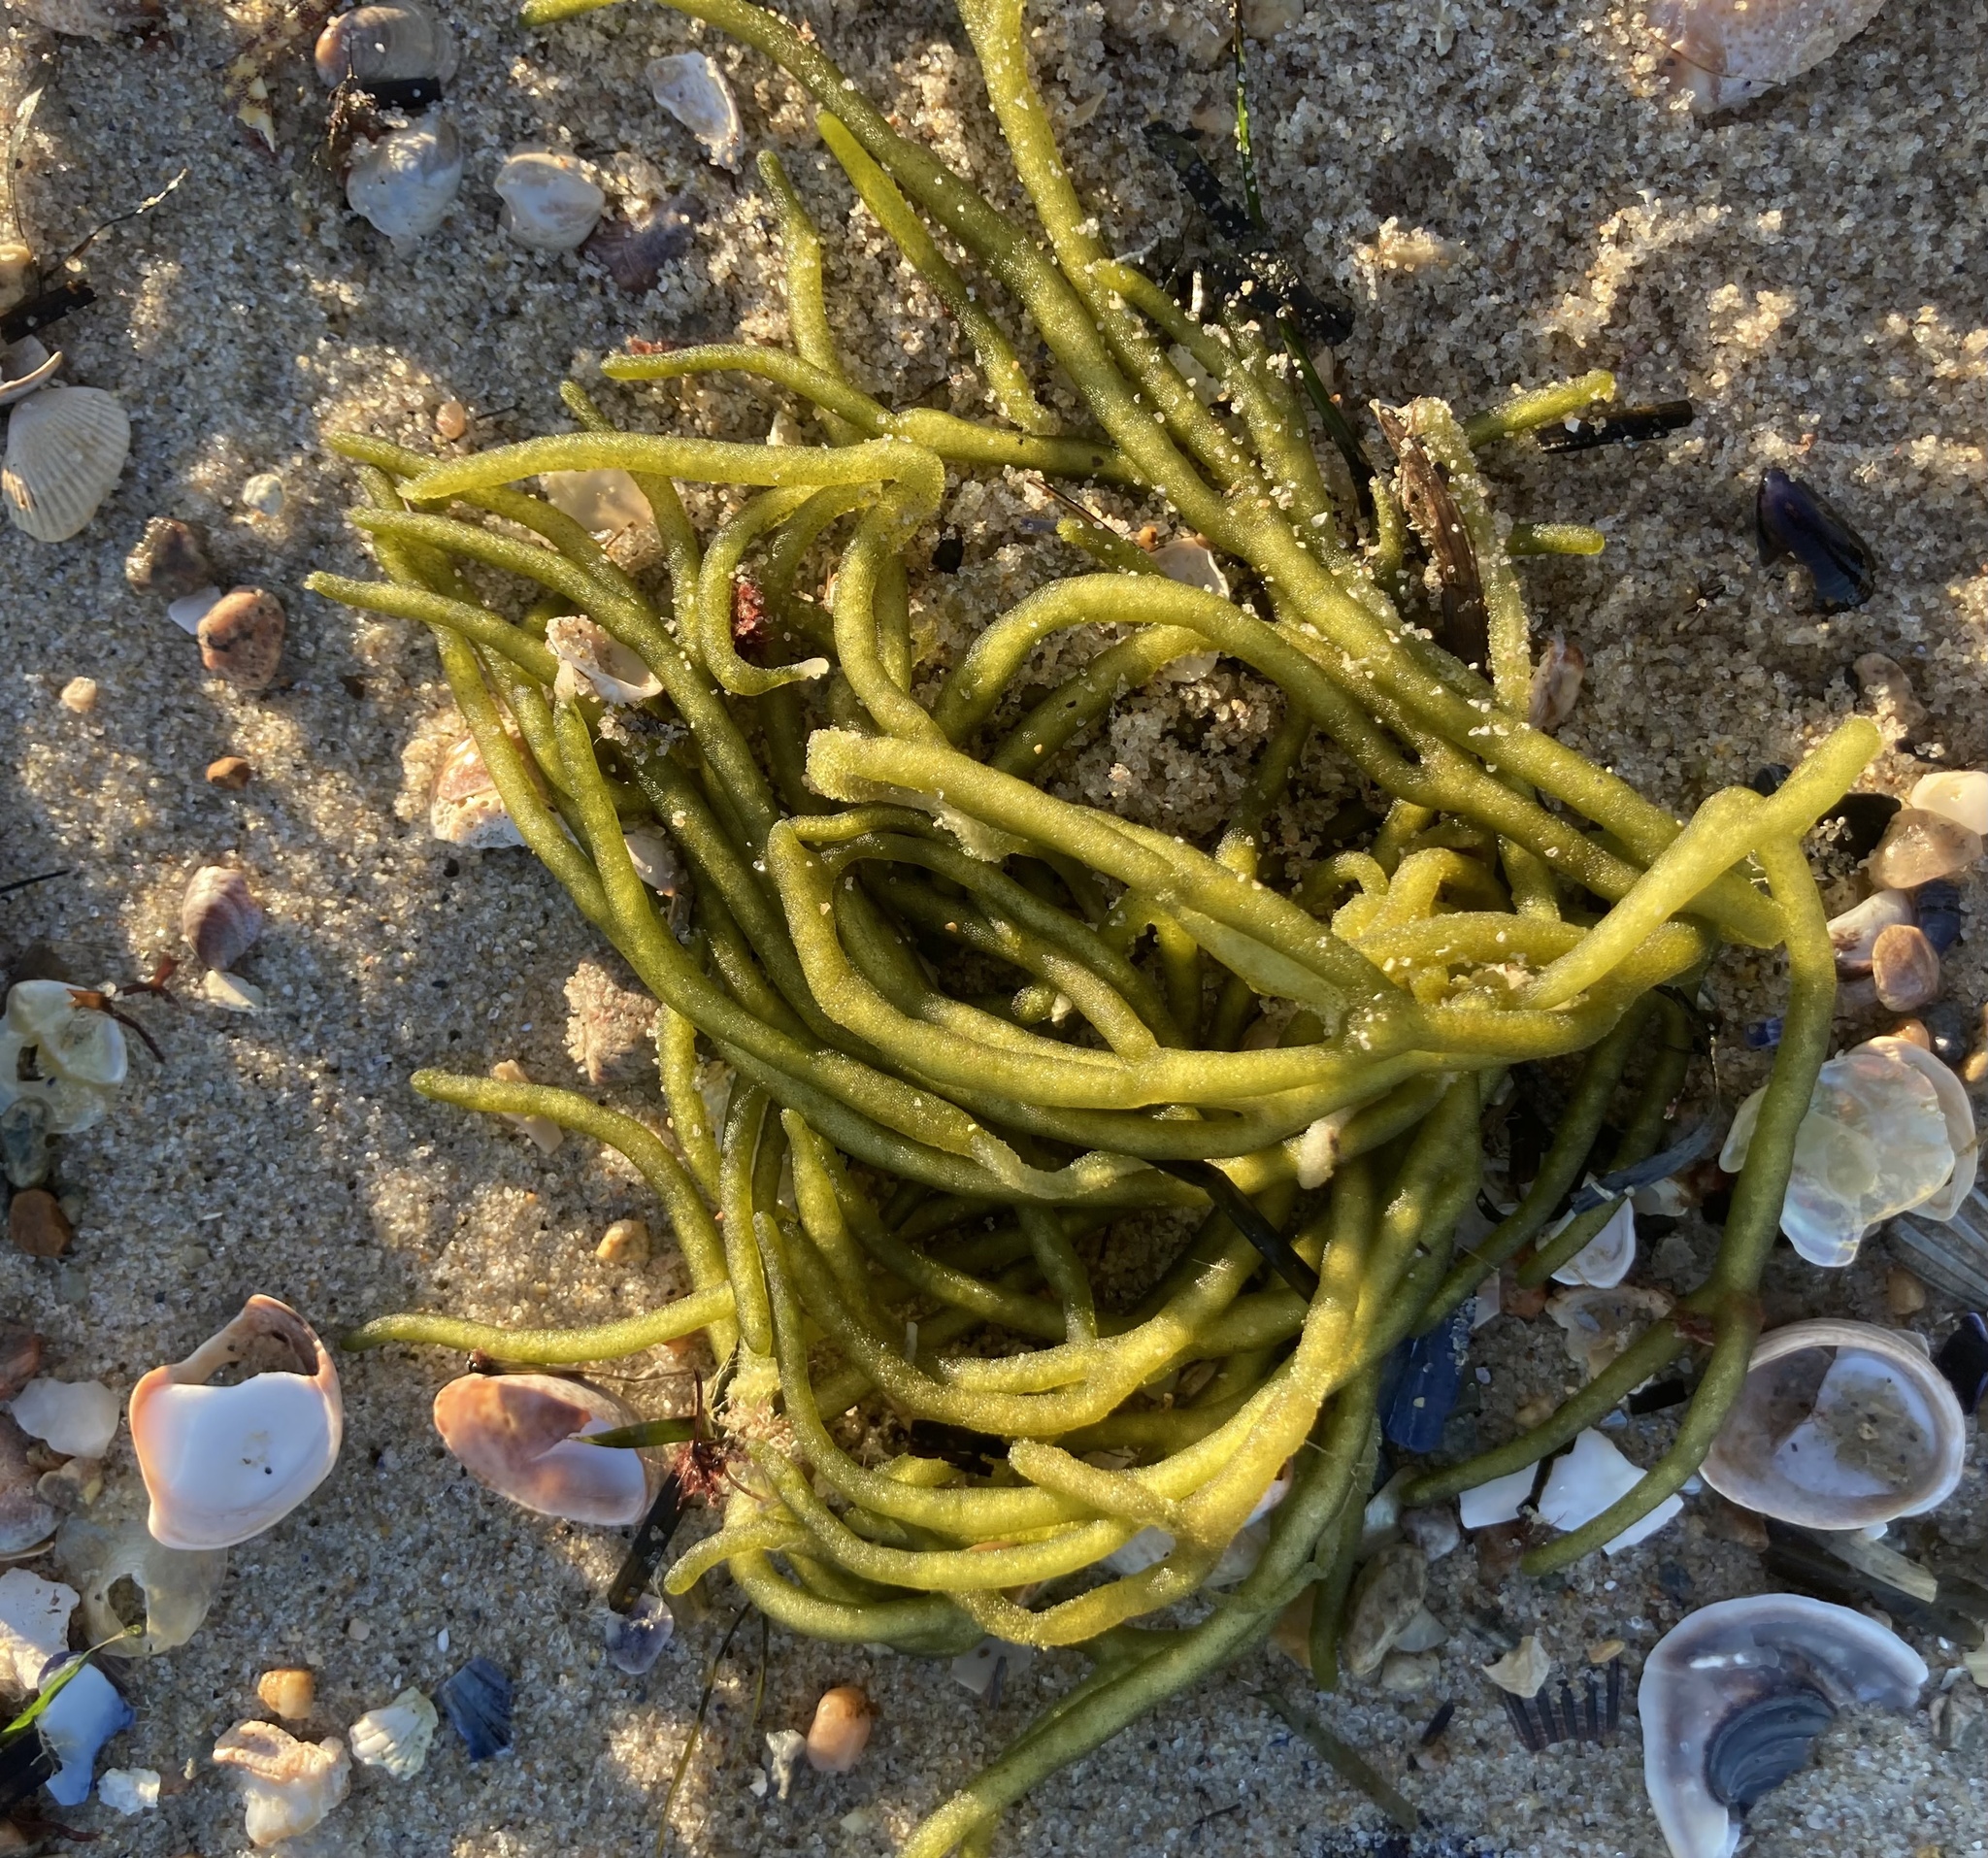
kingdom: Plantae
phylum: Chlorophyta
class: Ulvophyceae
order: Bryopsidales
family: Codiaceae
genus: Codium
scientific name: Codium fragile
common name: Dead man's fingers
